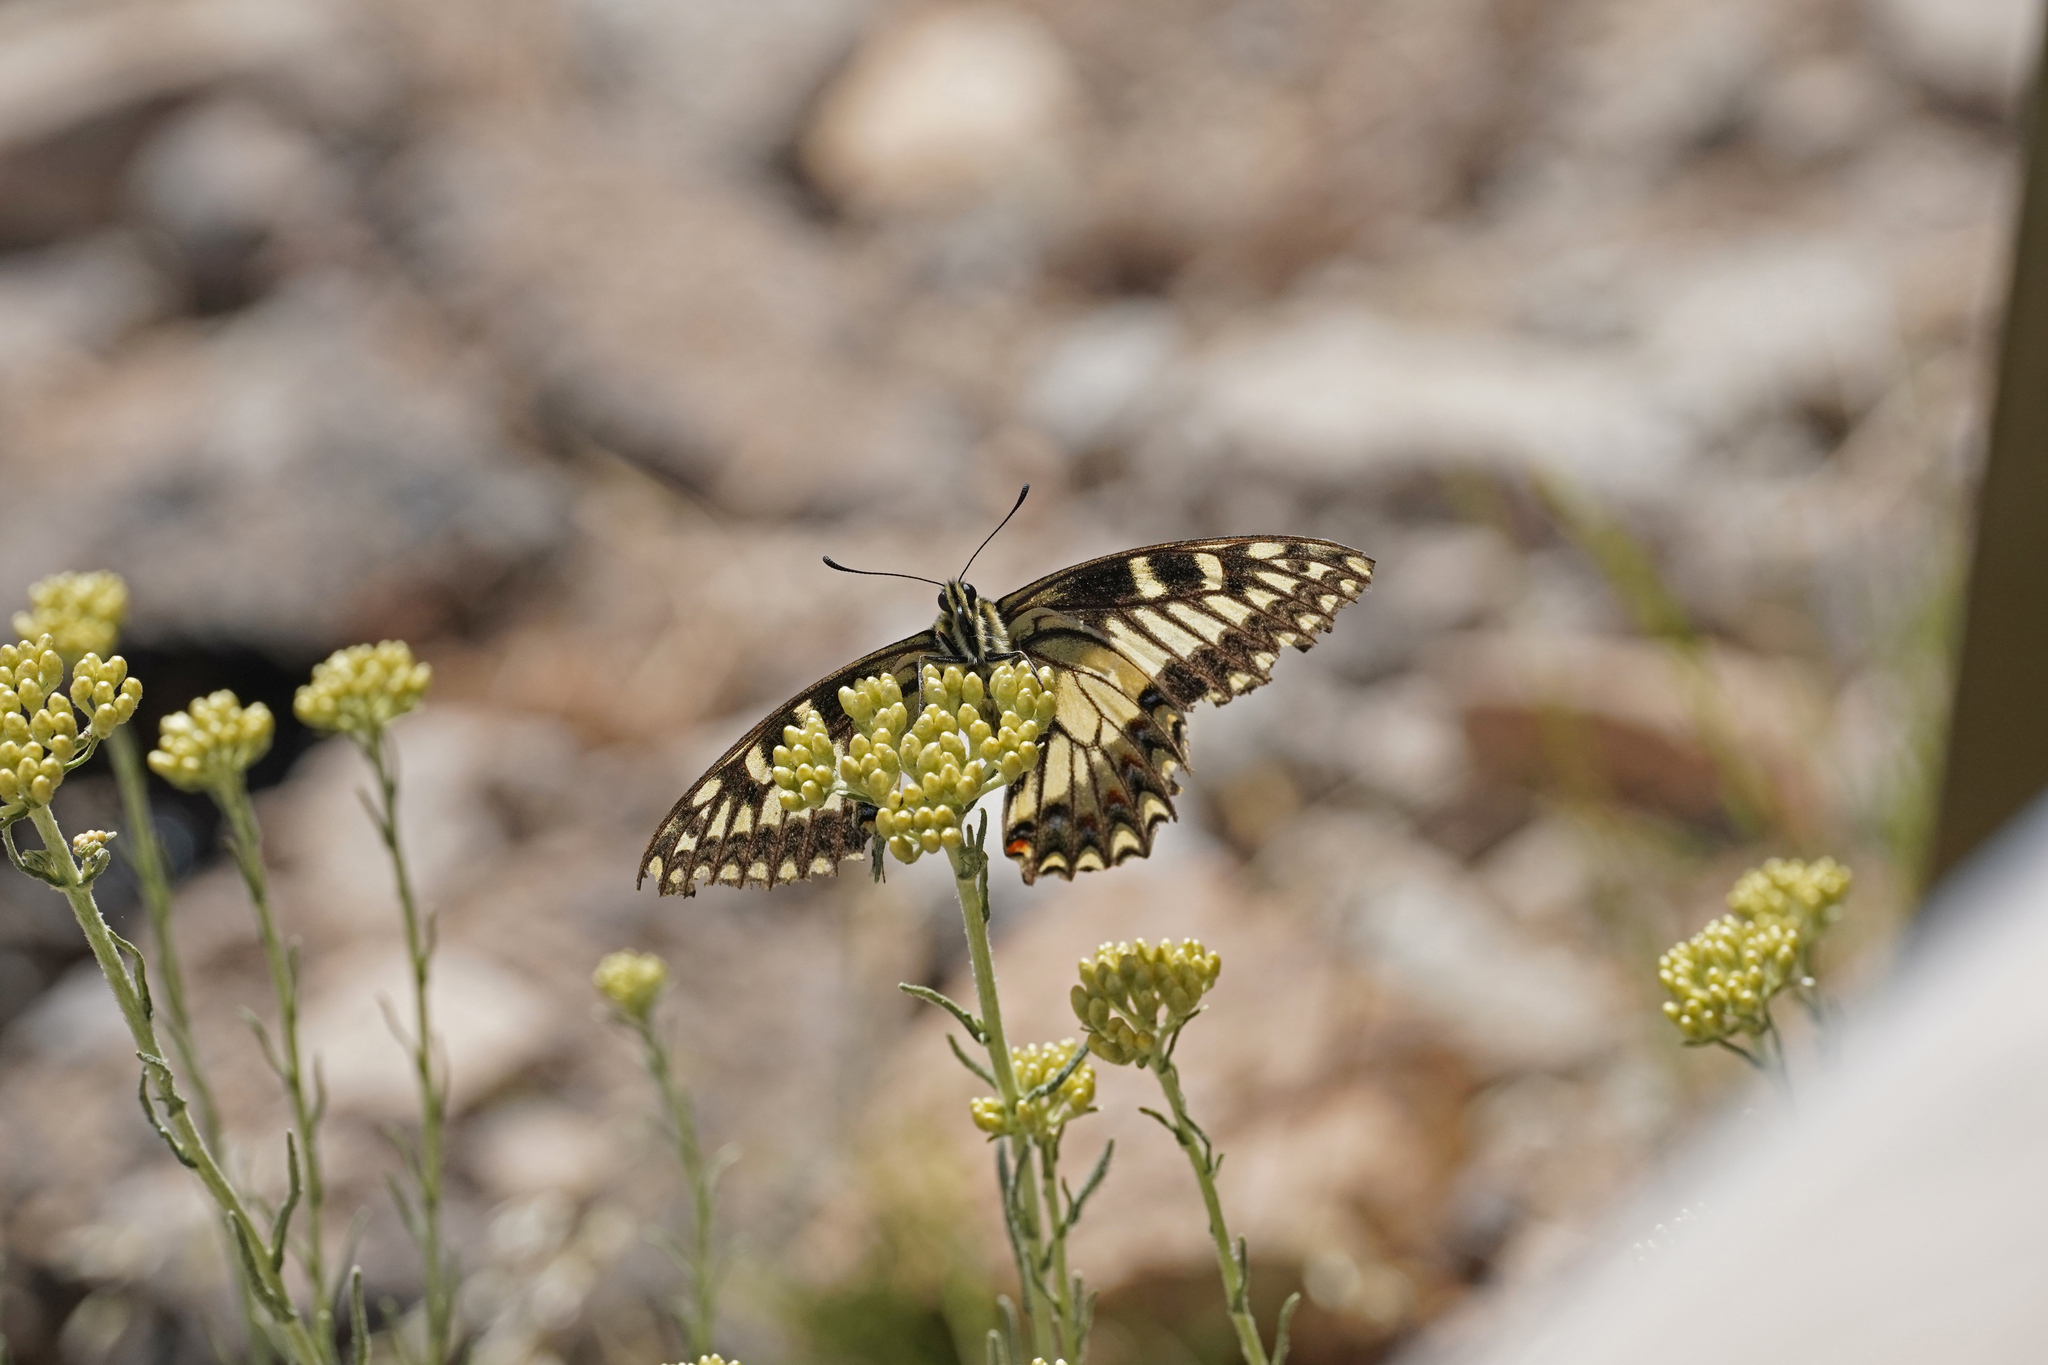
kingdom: Animalia
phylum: Arthropoda
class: Insecta
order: Lepidoptera
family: Papilionidae
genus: Papilio
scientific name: Papilio hospiton
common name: Corsican swallowtail
